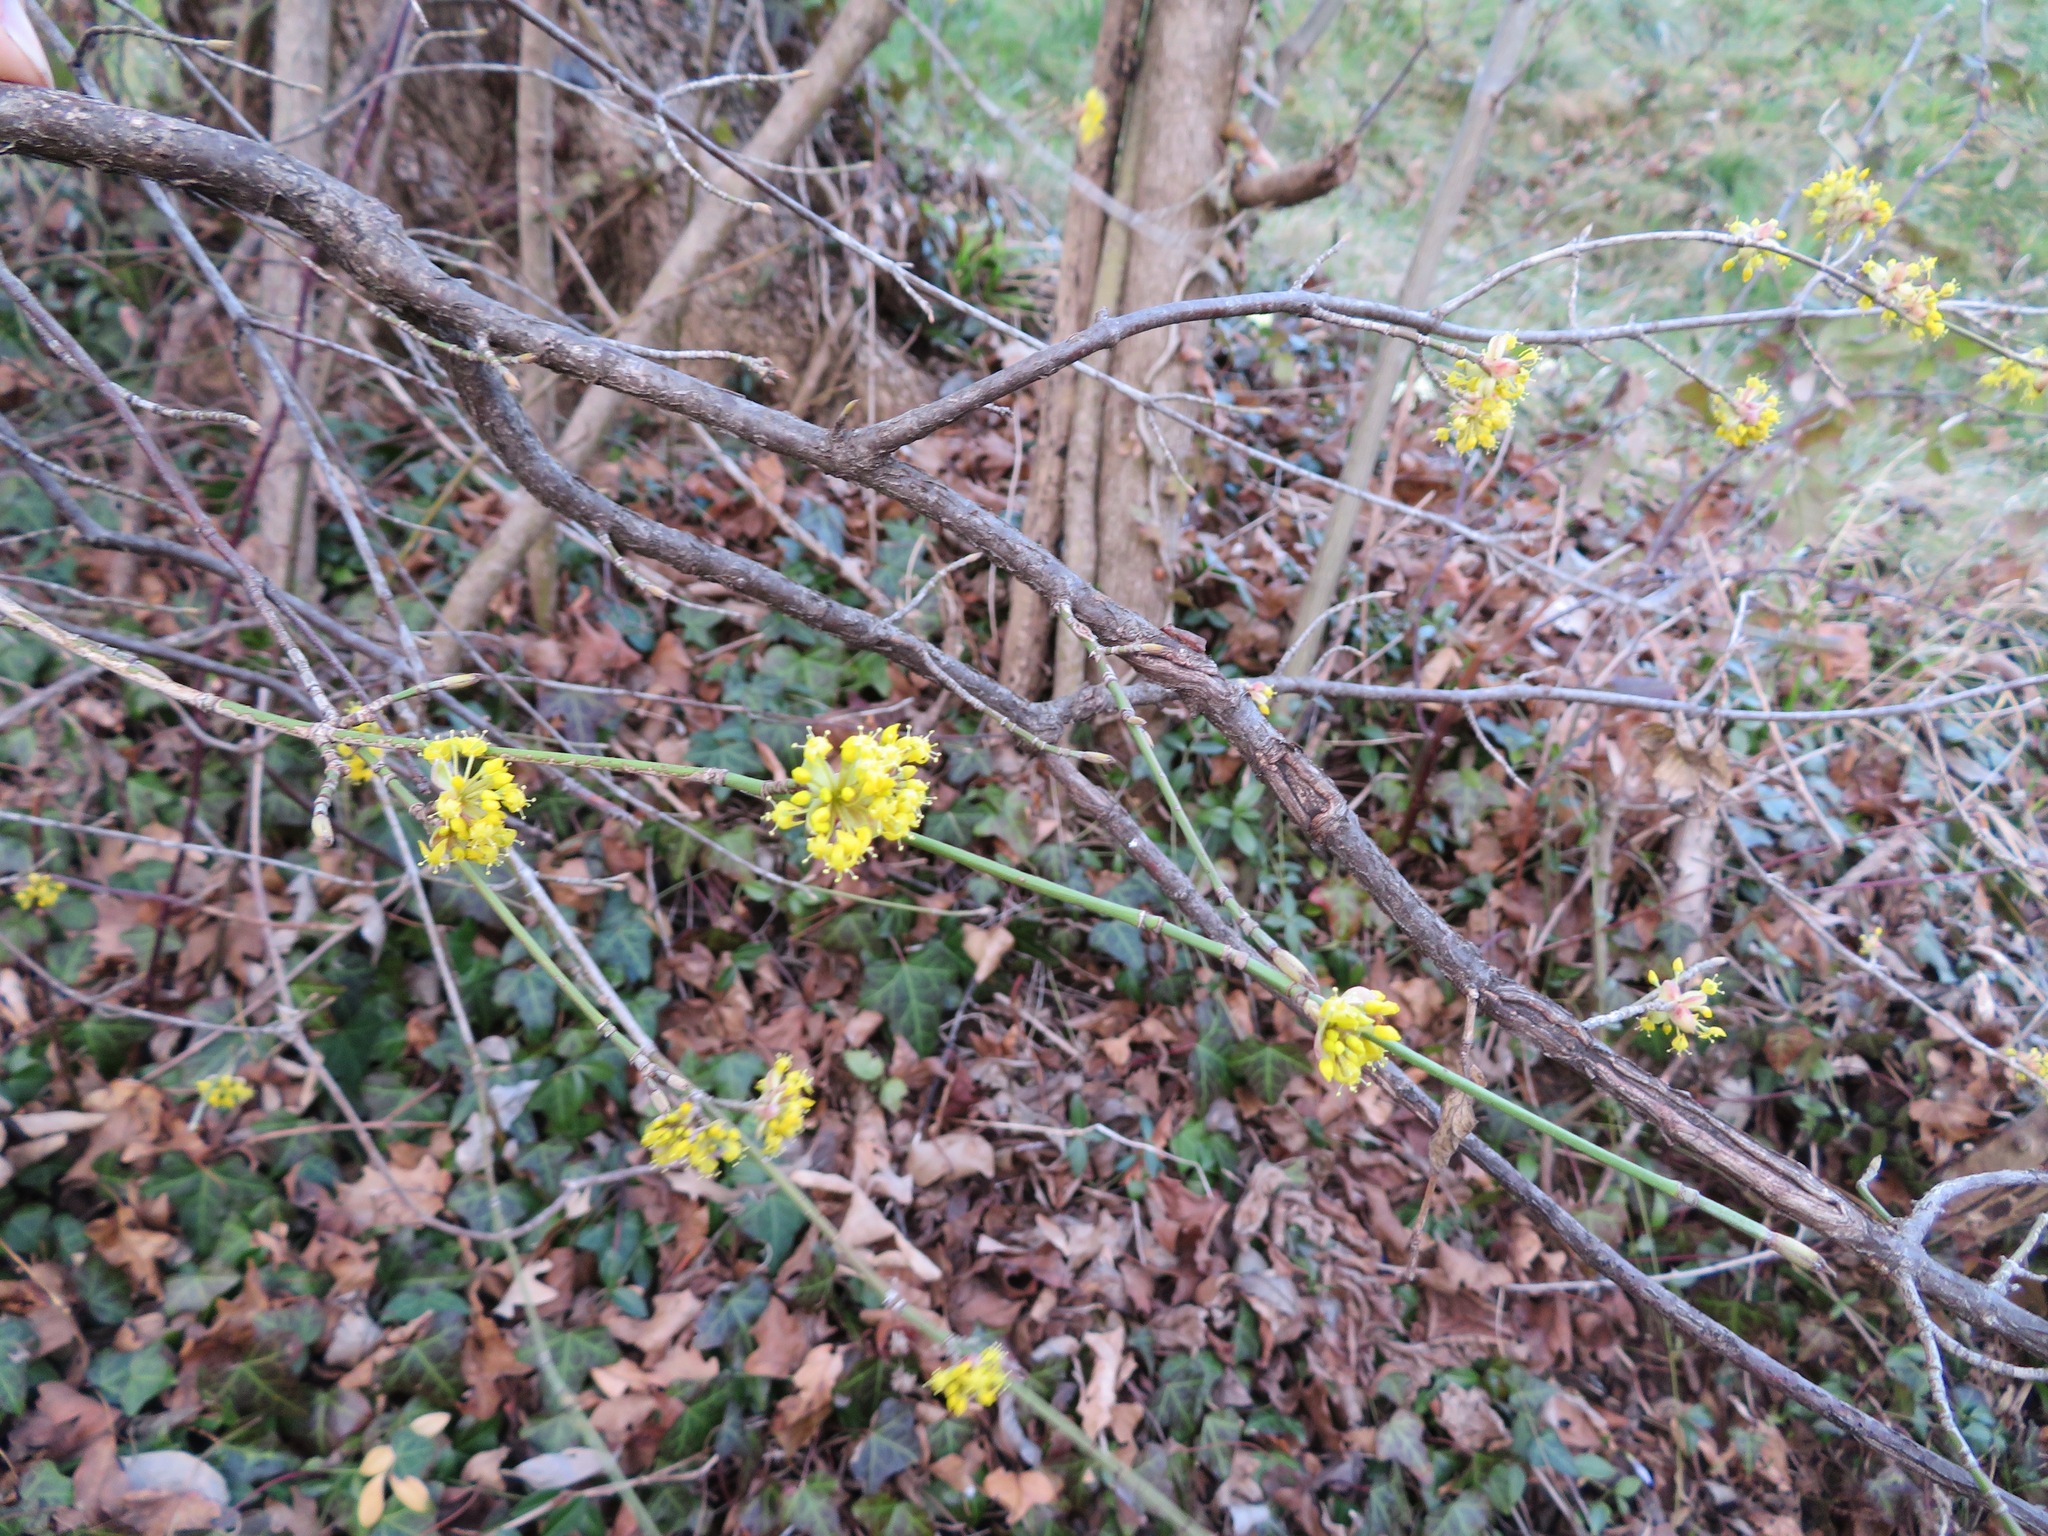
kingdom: Plantae
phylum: Tracheophyta
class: Magnoliopsida
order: Cornales
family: Cornaceae
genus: Cornus
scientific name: Cornus mas
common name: Cornelian-cherry
